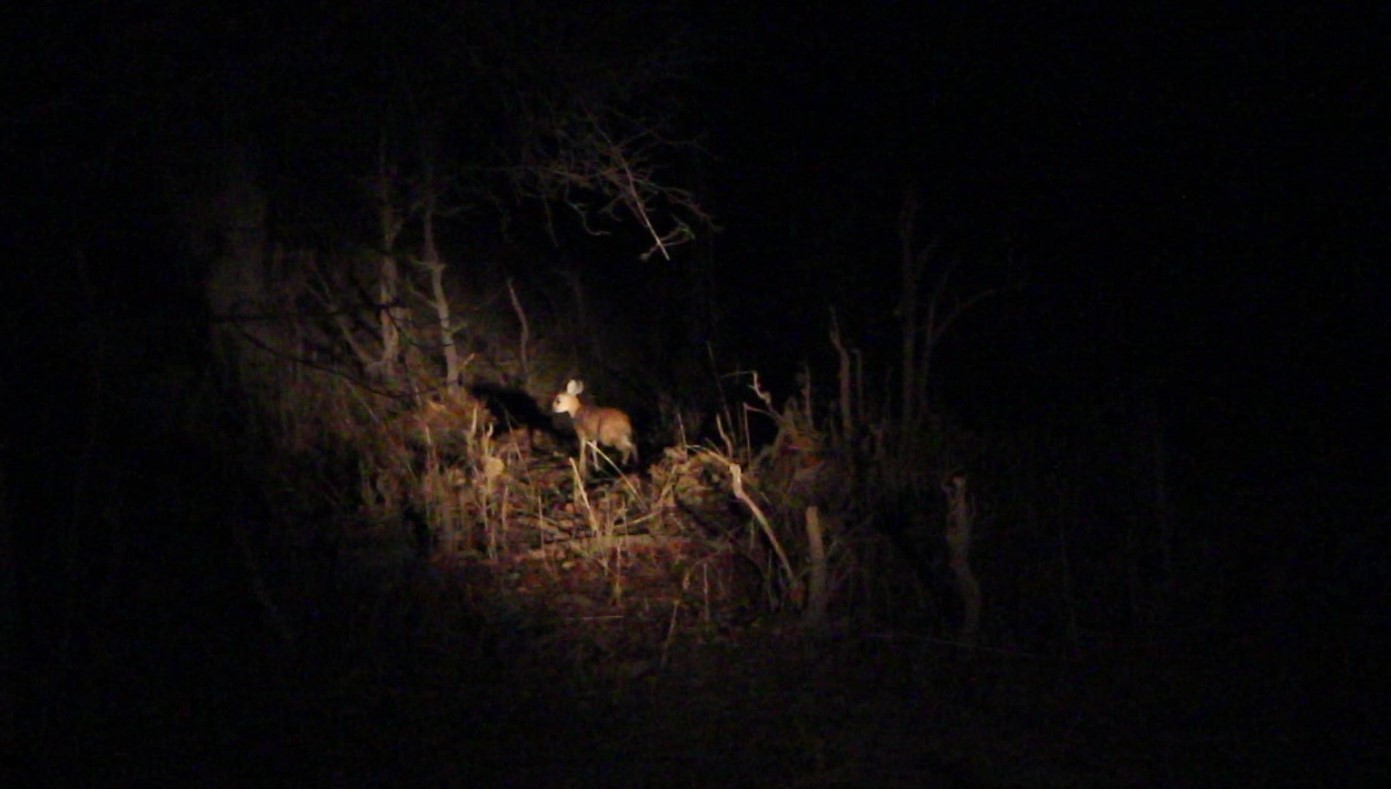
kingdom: Animalia
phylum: Chordata
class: Mammalia
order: Artiodactyla
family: Bovidae
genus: Raphicerus
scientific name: Raphicerus sharpei
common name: Sharpe's grysbok
